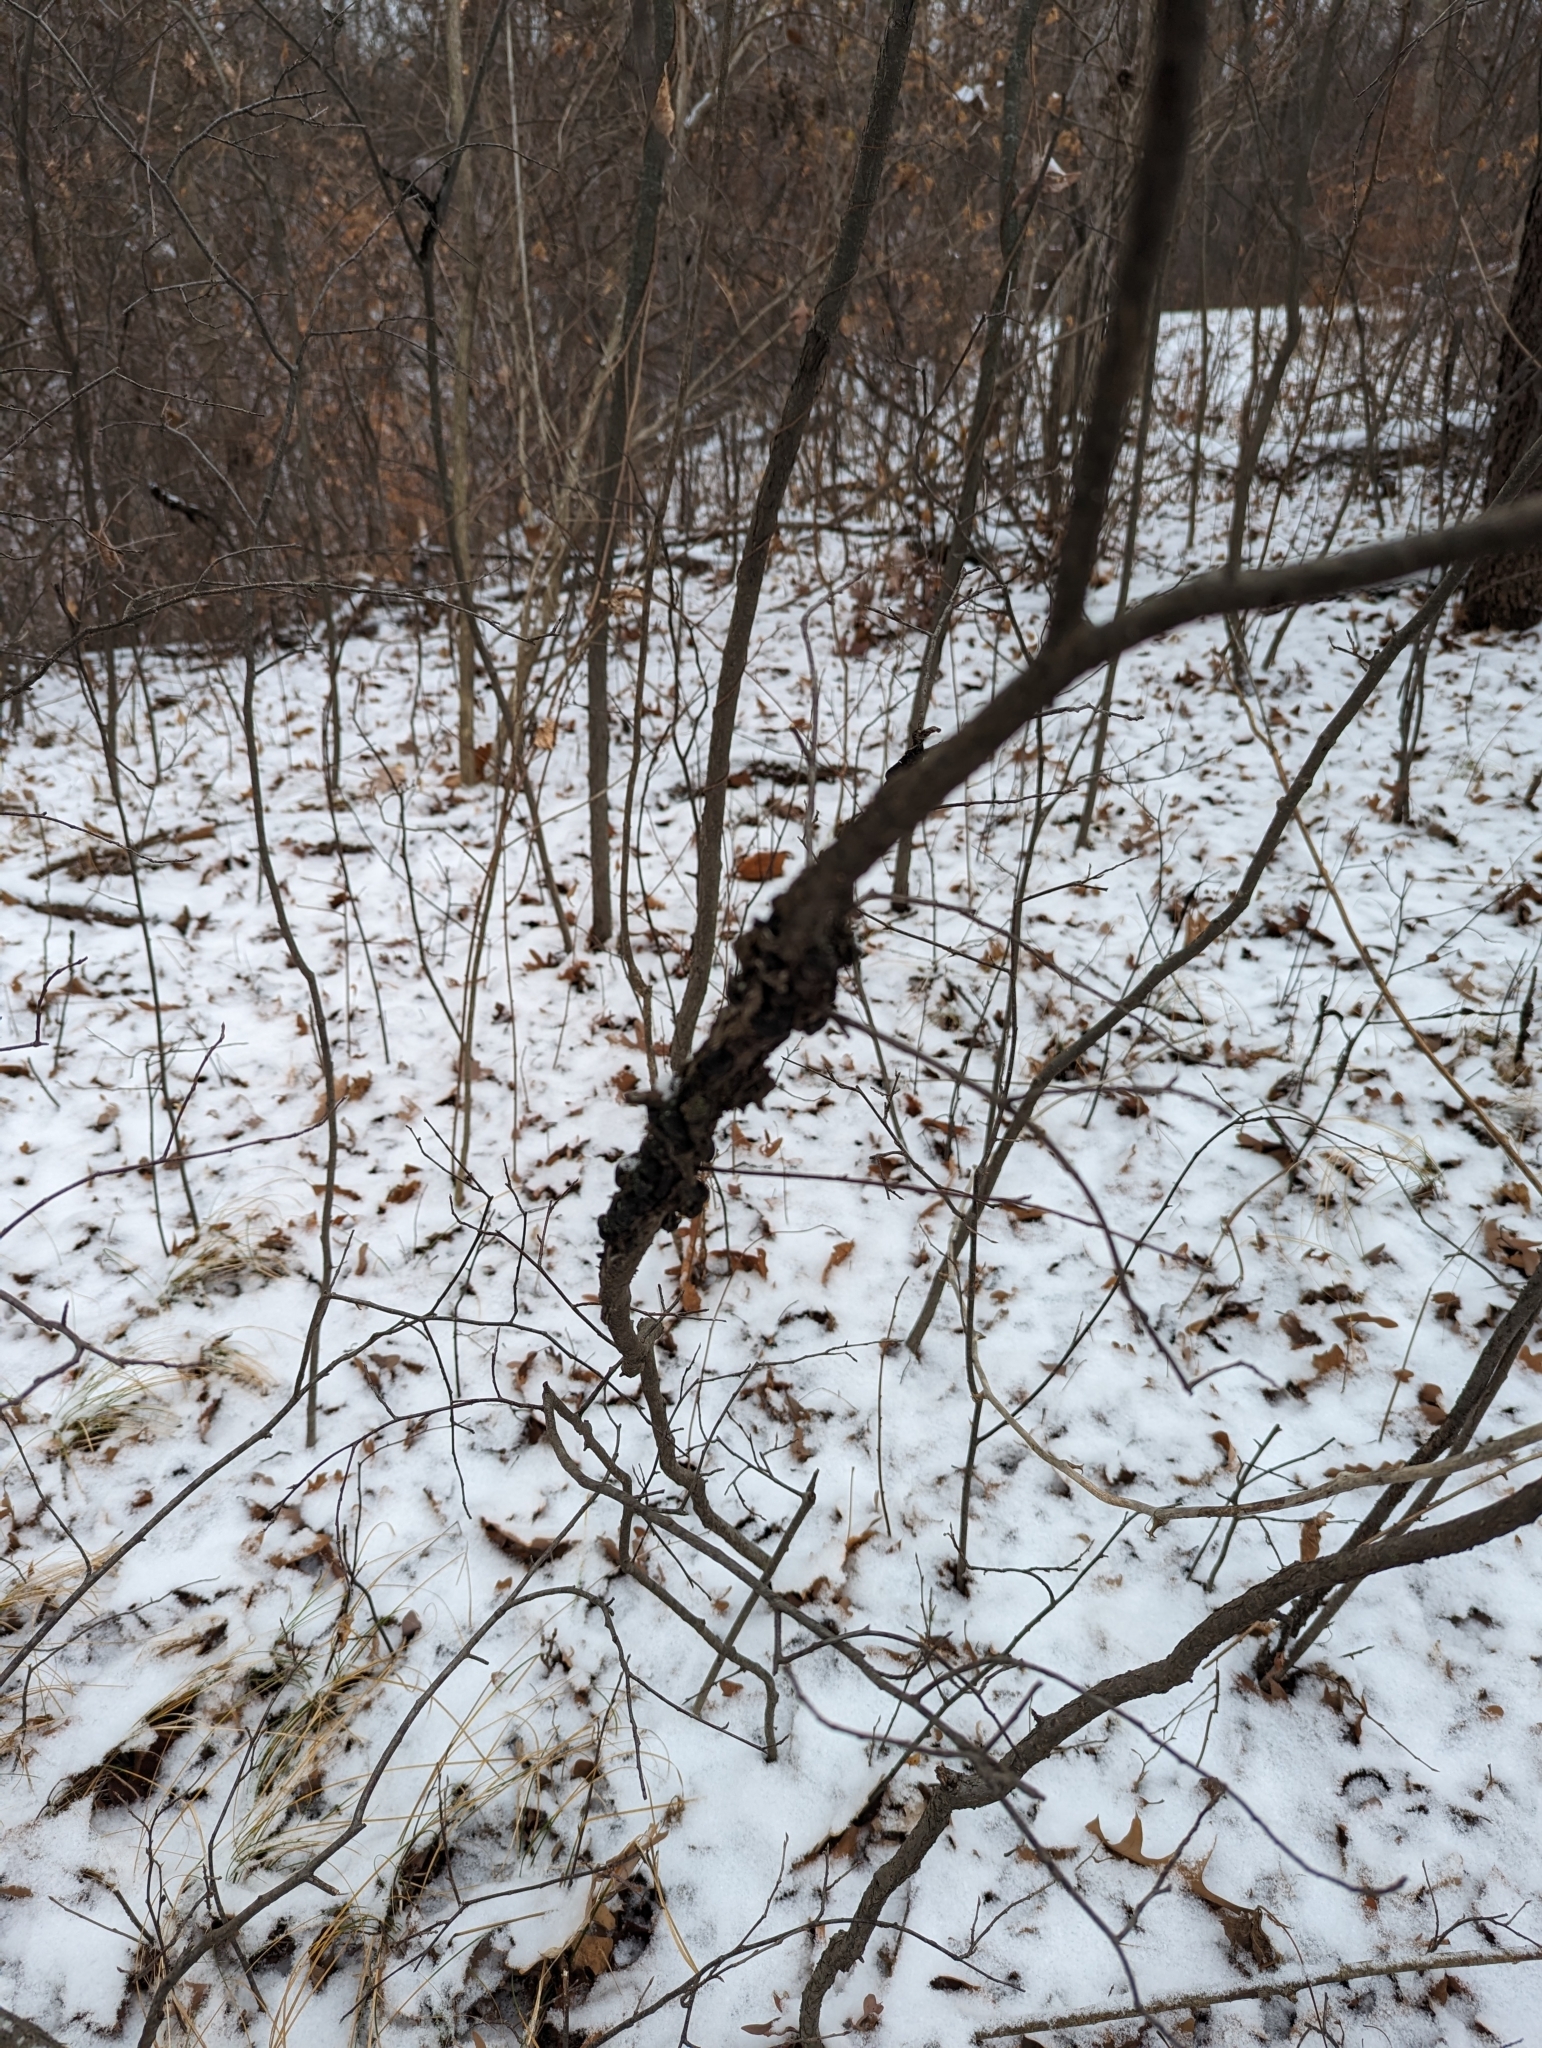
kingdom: Fungi
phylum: Ascomycota
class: Dothideomycetes
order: Venturiales
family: Venturiaceae
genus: Apiosporina
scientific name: Apiosporina morbosa
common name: Black knot
